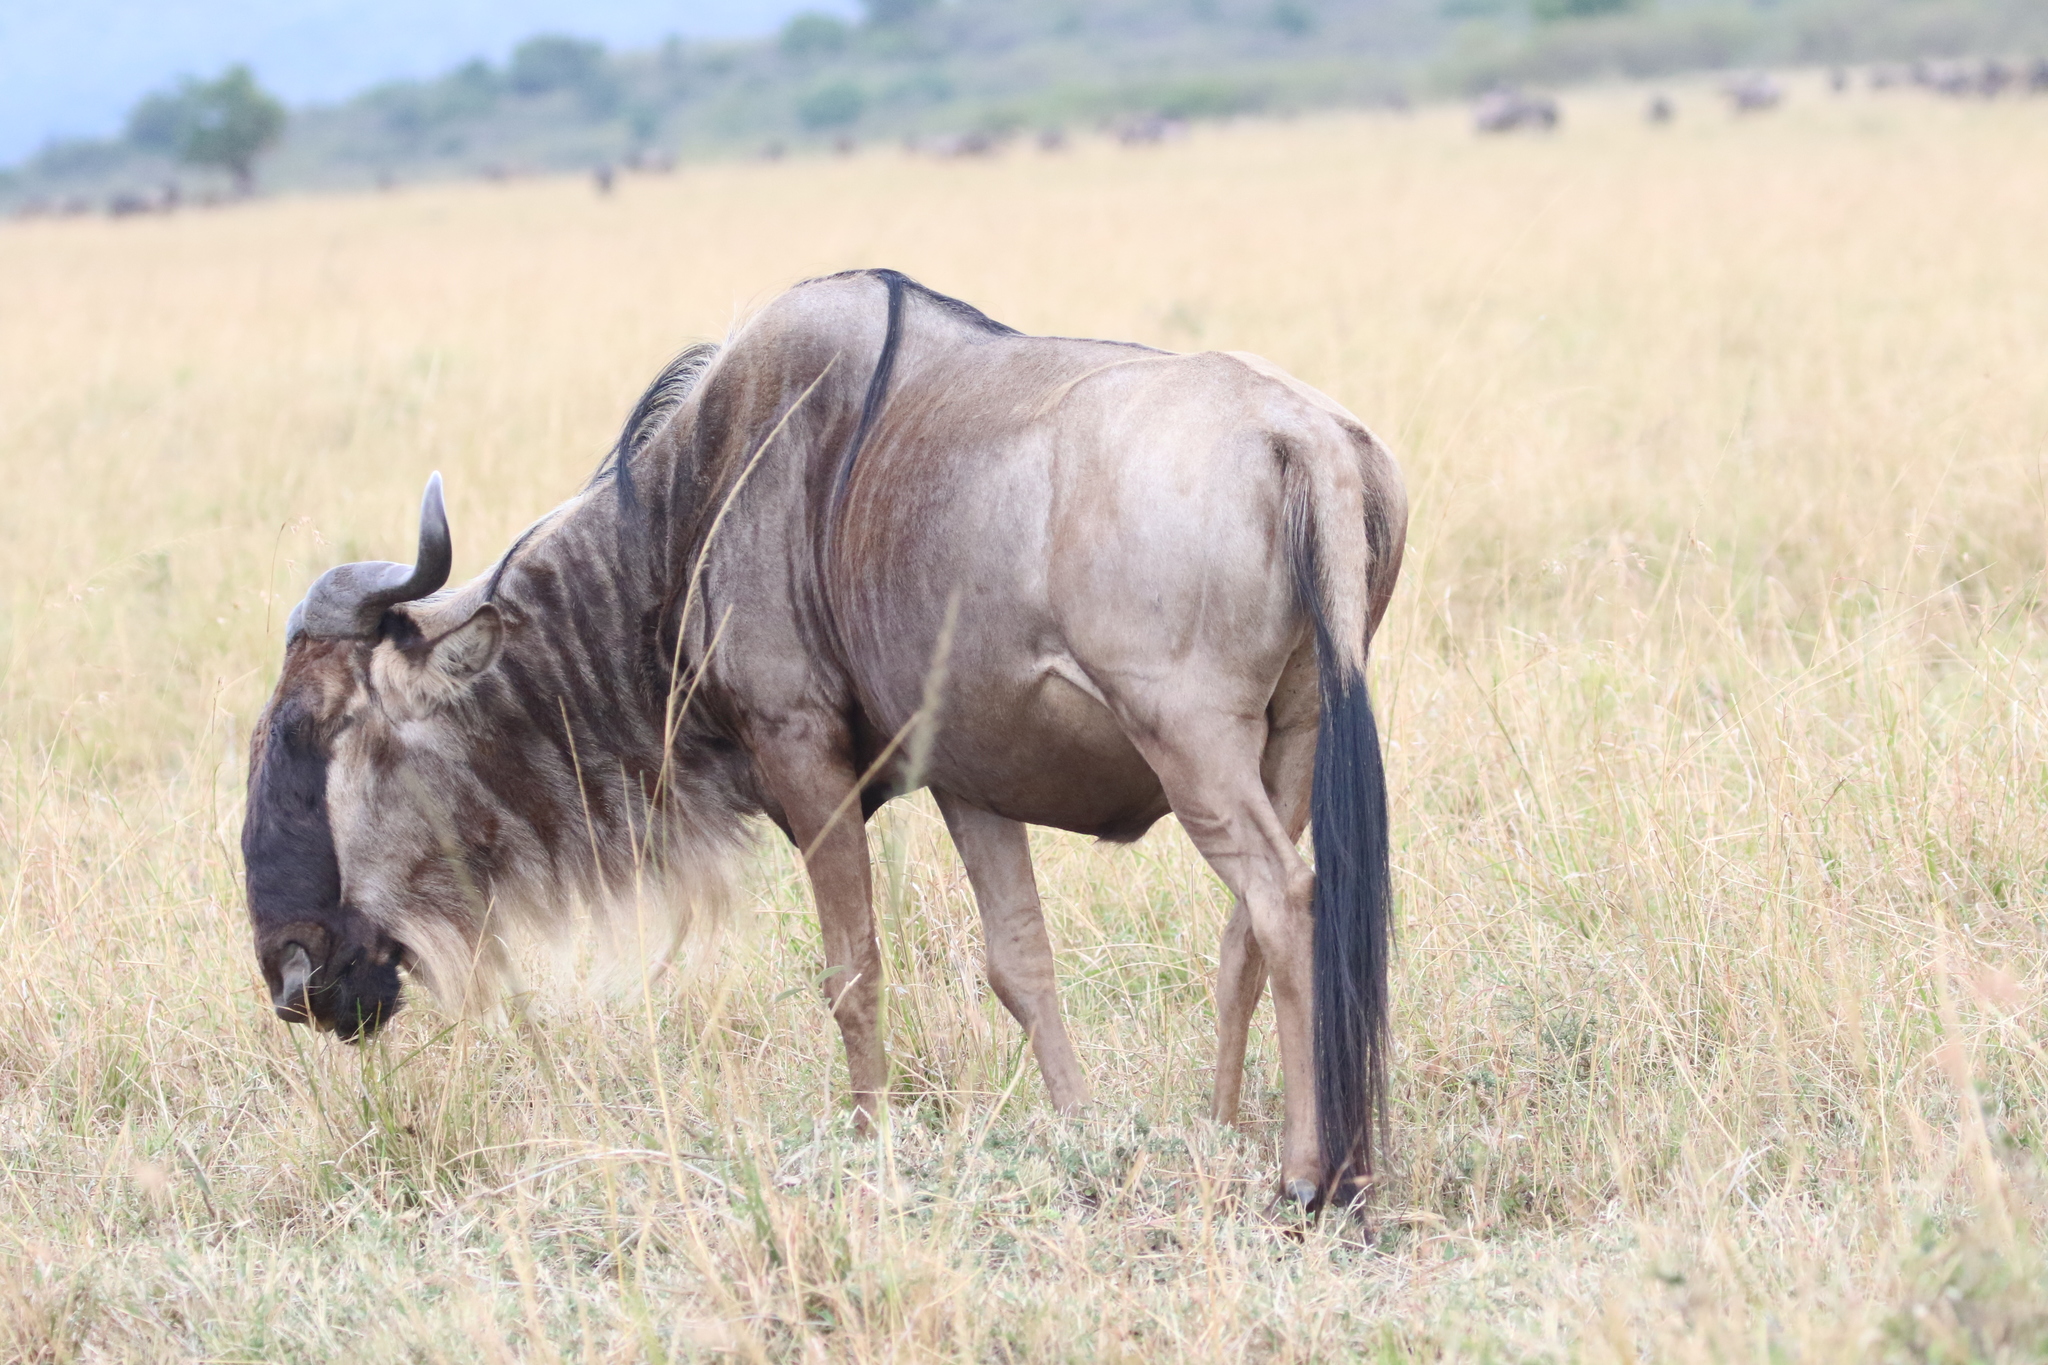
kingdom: Animalia
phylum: Chordata
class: Mammalia
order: Artiodactyla
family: Bovidae
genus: Connochaetes
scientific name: Connochaetes taurinus
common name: Blue wildebeest
